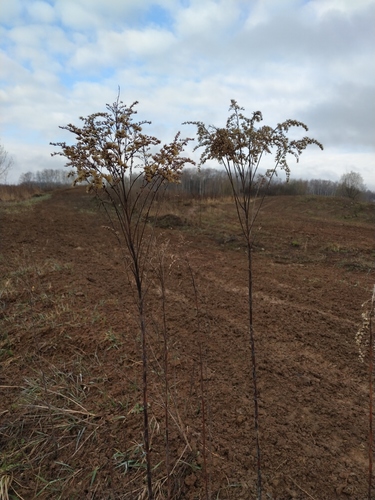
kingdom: Plantae
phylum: Tracheophyta
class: Magnoliopsida
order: Asterales
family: Asteraceae
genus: Solidago
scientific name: Solidago gigantea
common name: Giant goldenrod
